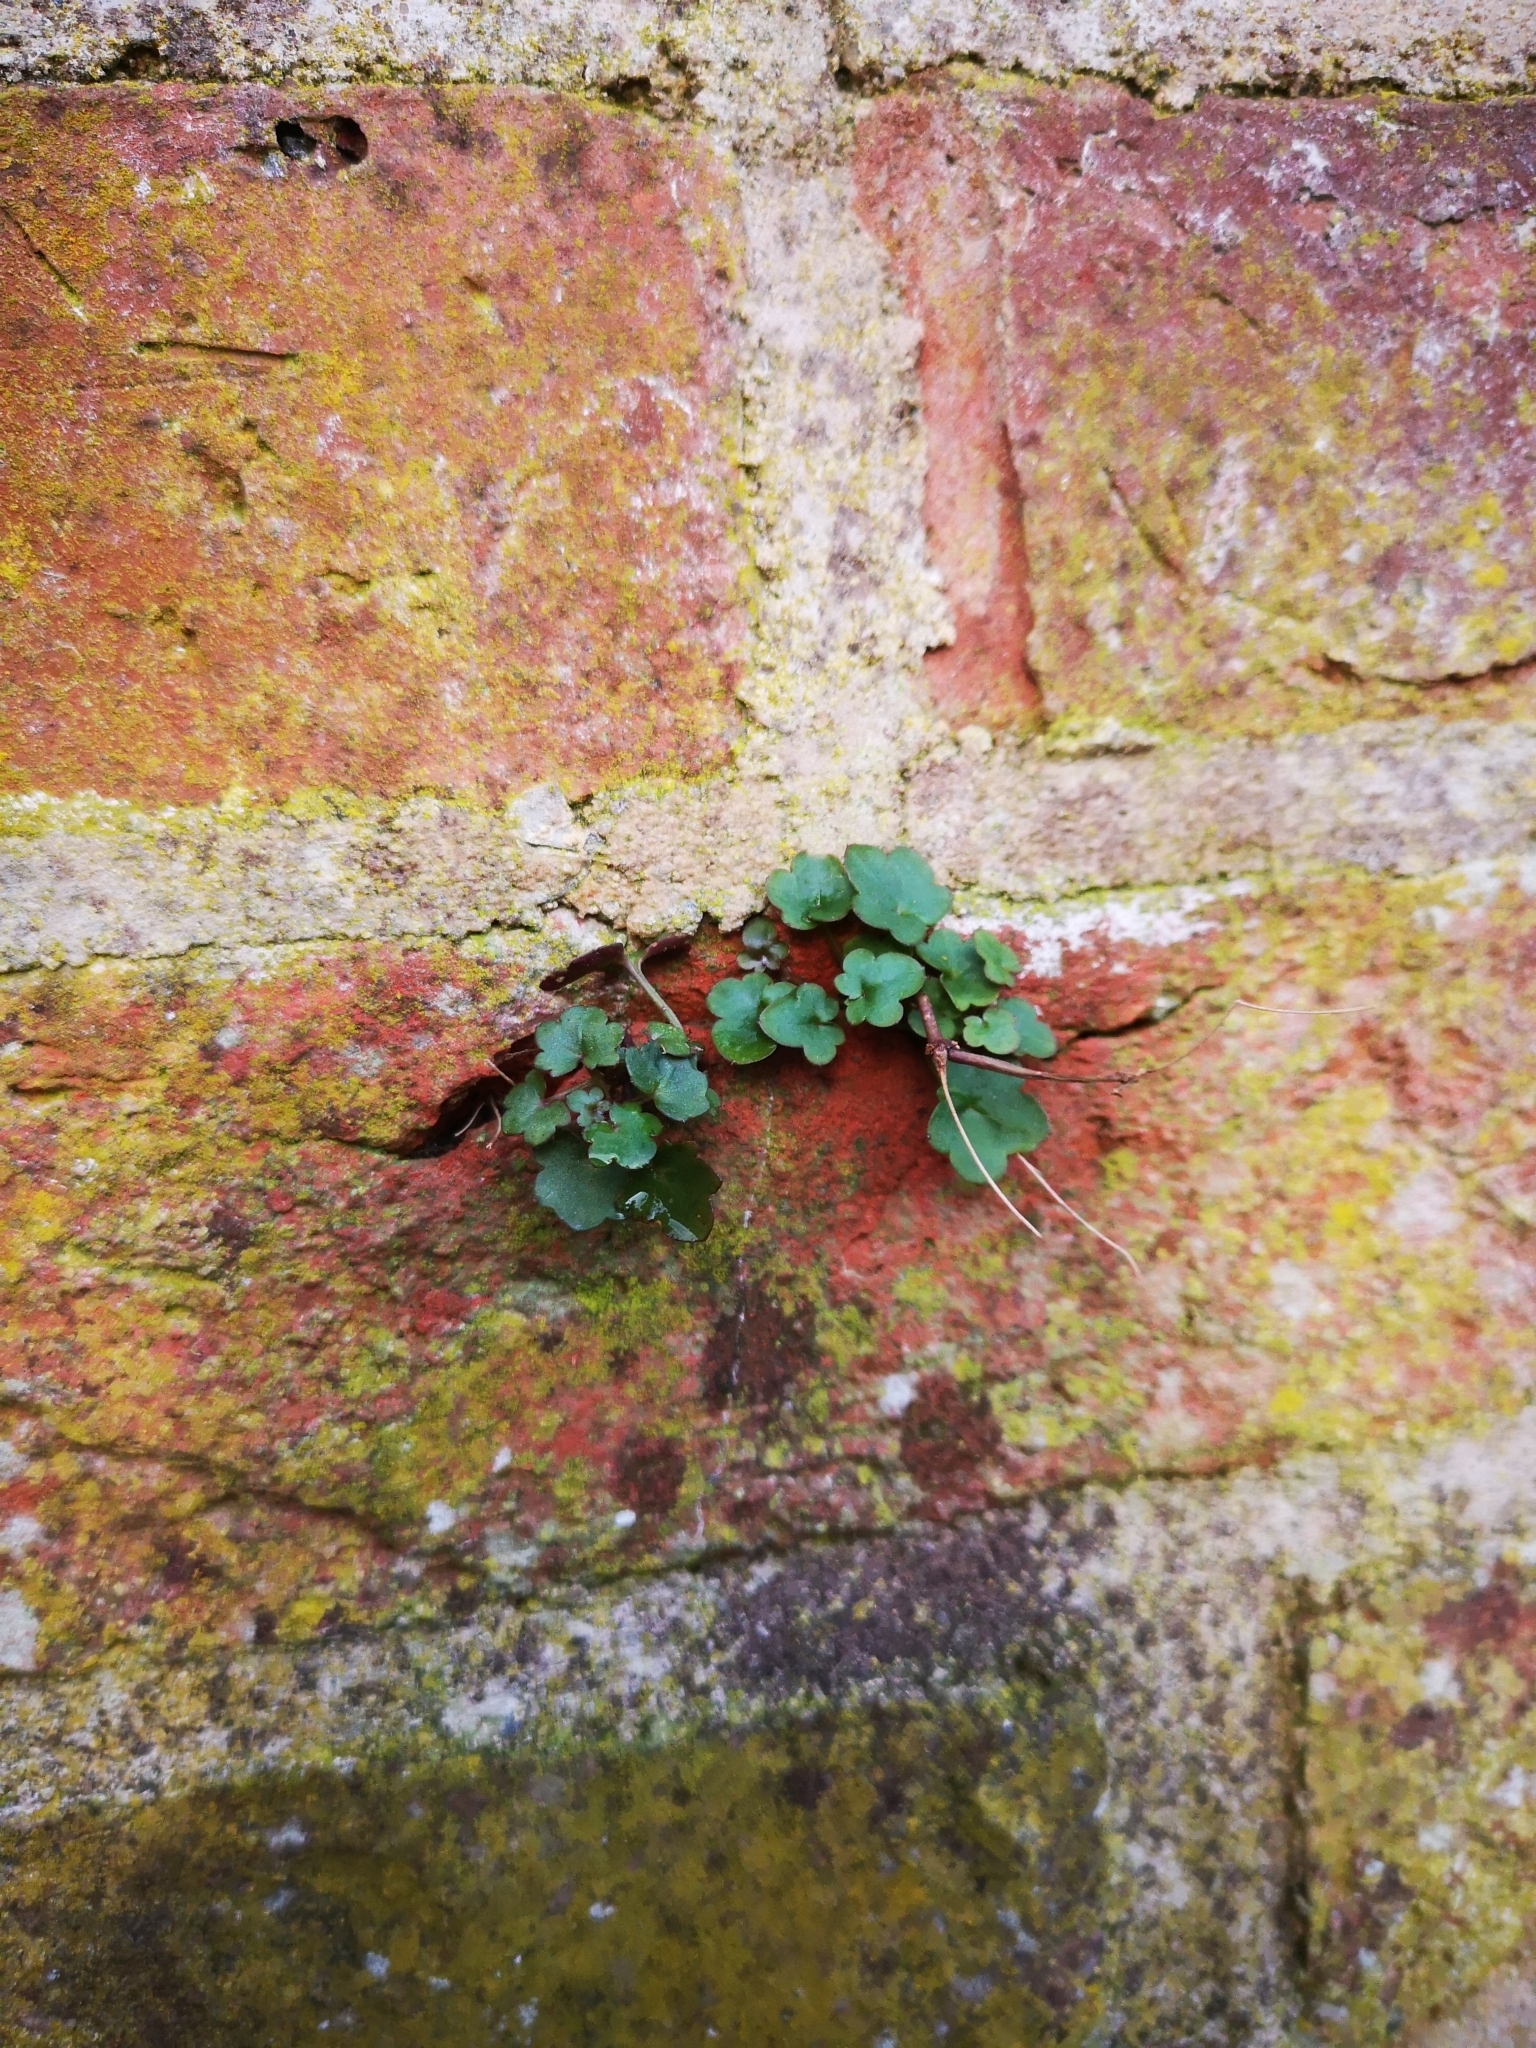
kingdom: Plantae
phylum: Tracheophyta
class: Magnoliopsida
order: Lamiales
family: Plantaginaceae
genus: Cymbalaria
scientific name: Cymbalaria muralis
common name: Ivy-leaved toadflax
